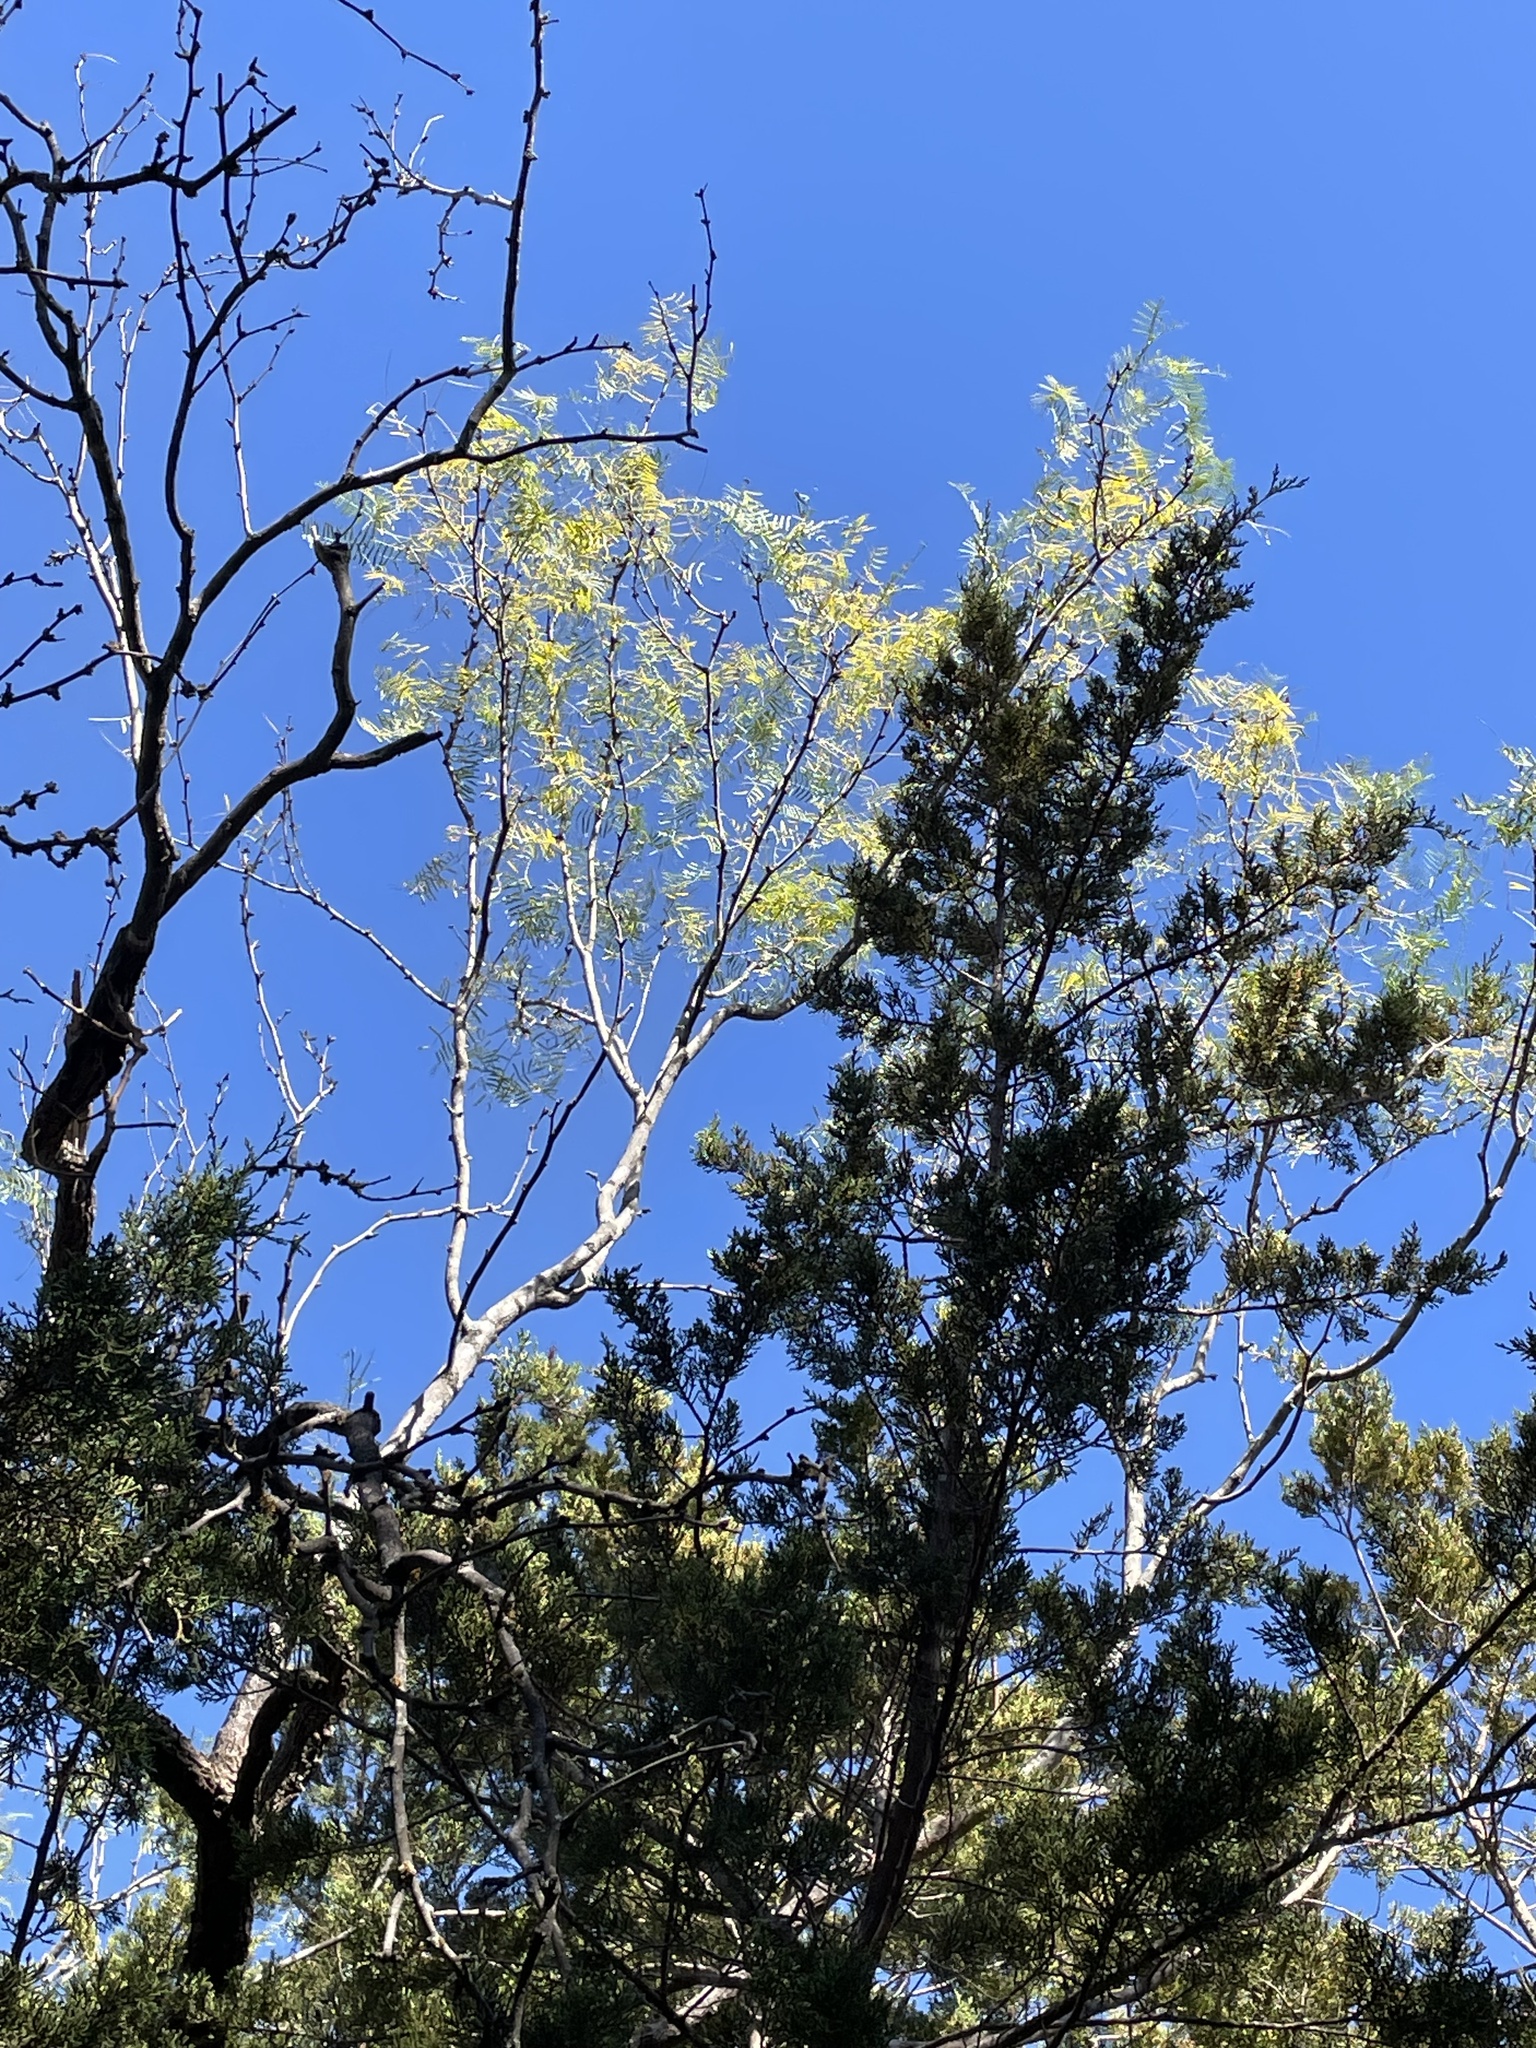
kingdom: Plantae
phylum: Tracheophyta
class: Magnoliopsida
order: Fabales
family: Fabaceae
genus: Prosopis
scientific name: Prosopis glandulosa
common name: Honey mesquite
